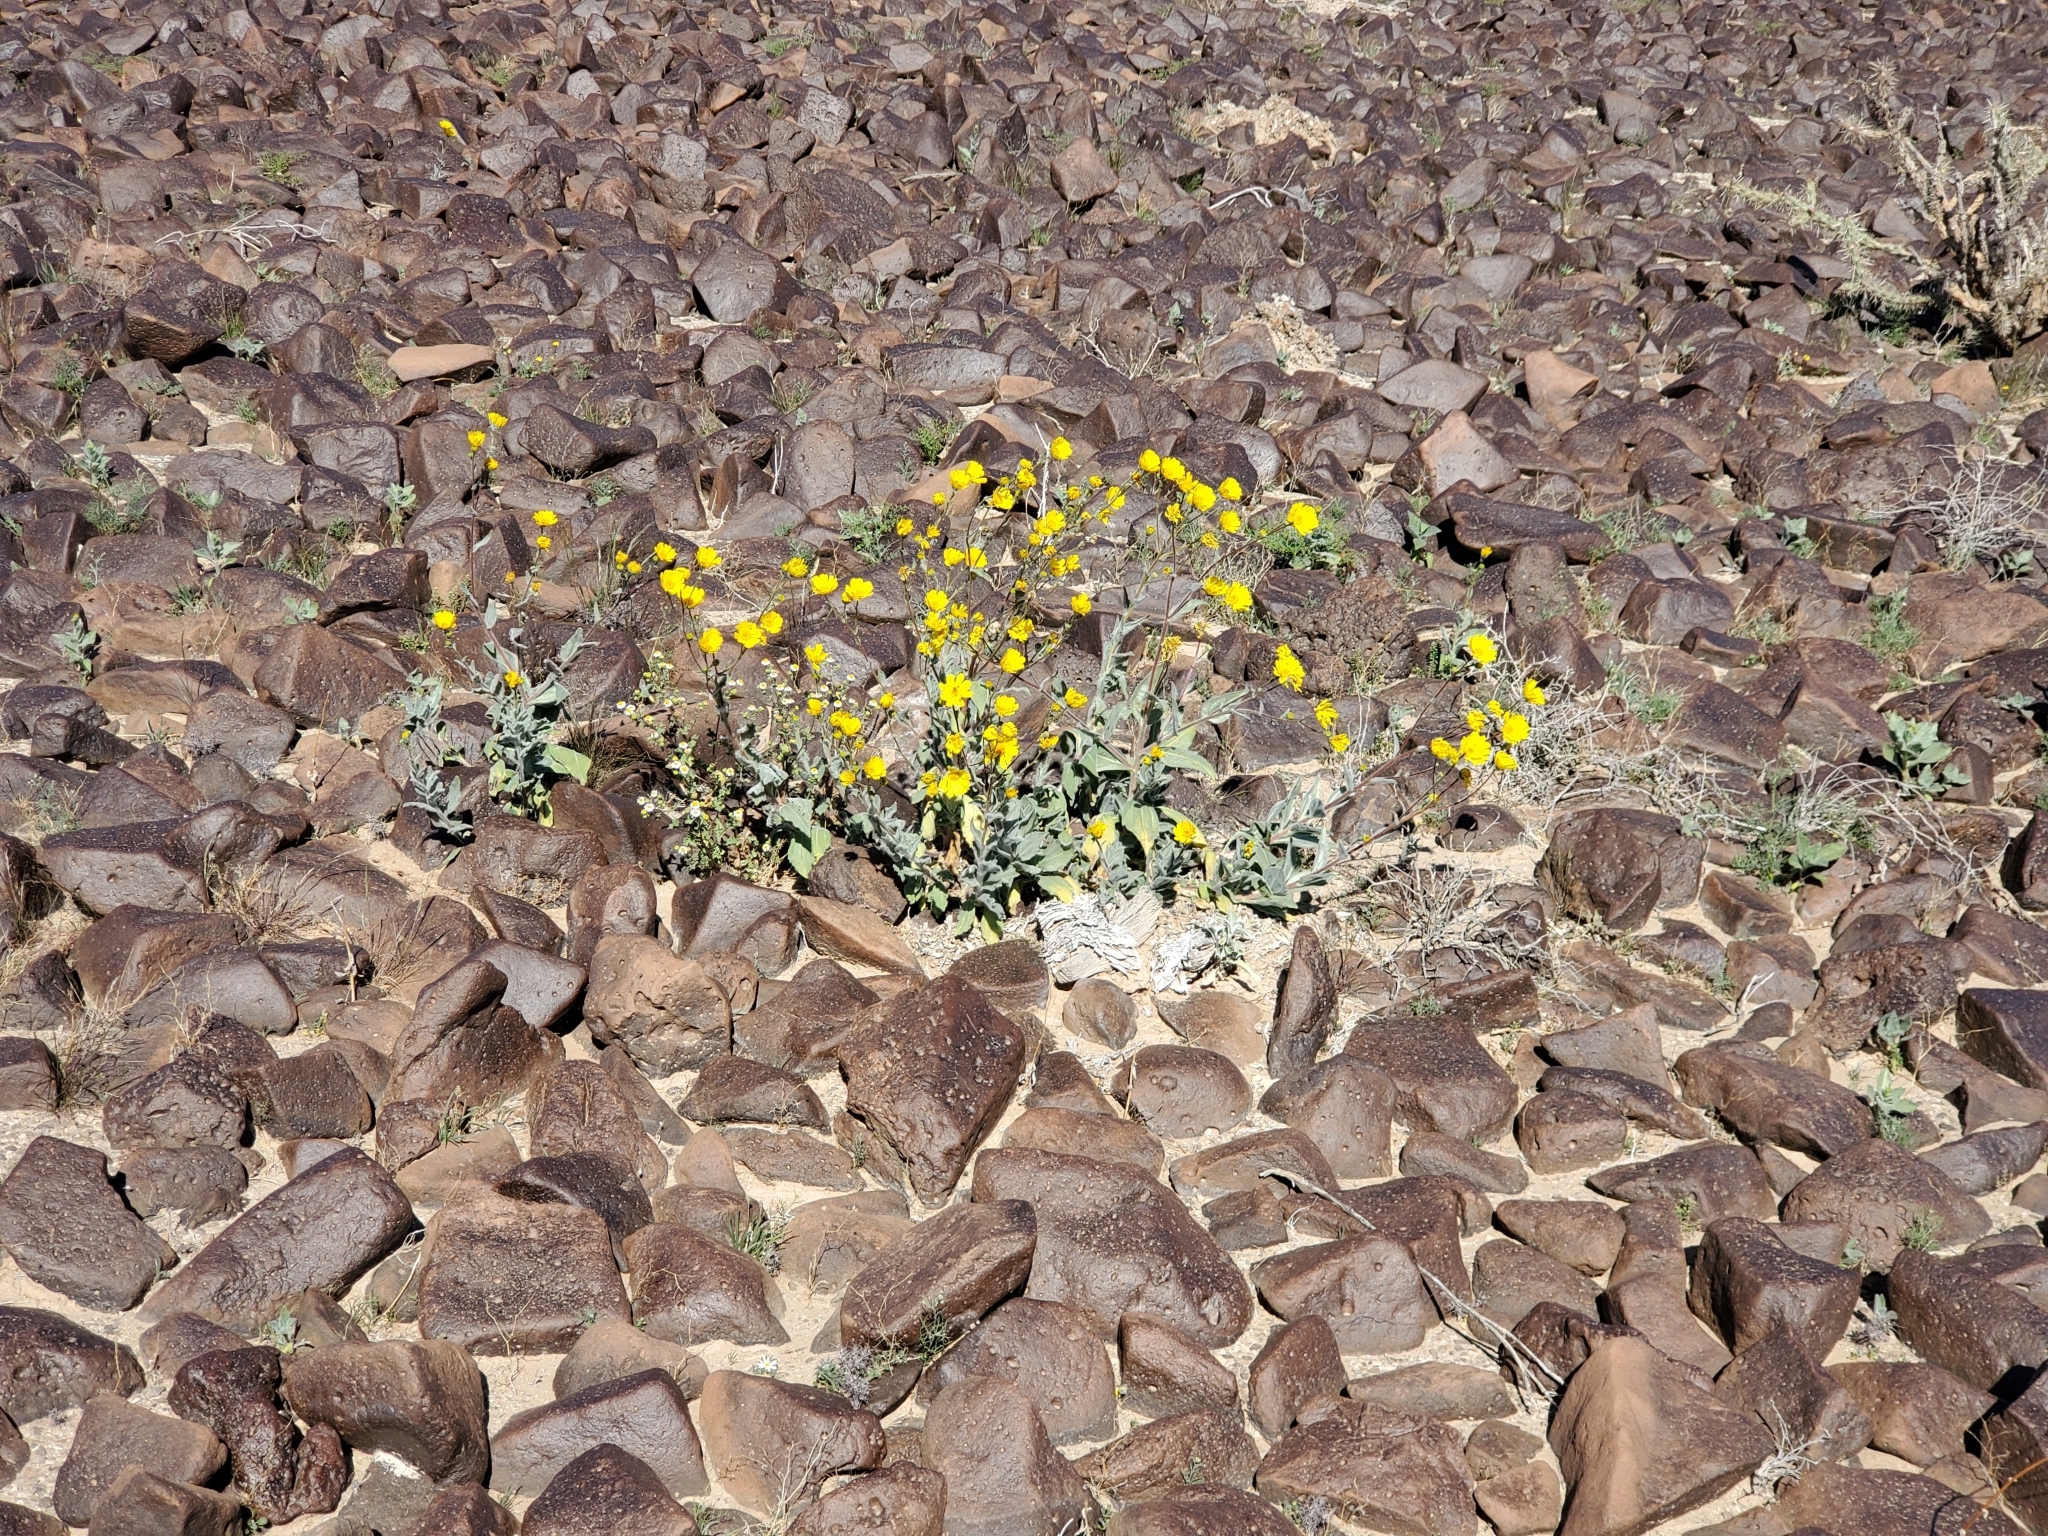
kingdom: Plantae
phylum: Tracheophyta
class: Magnoliopsida
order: Asterales
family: Asteraceae
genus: Geraea
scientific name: Geraea canescens
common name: Desert-gold
